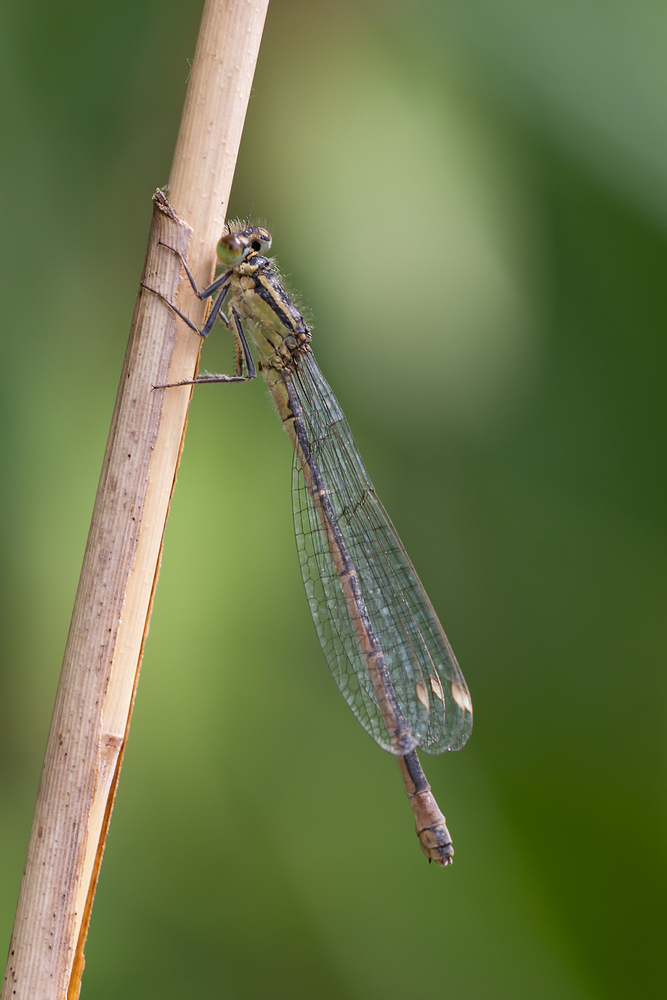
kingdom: Animalia
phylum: Arthropoda
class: Insecta
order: Odonata
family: Coenagrionidae
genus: Ischnura
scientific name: Ischnura elegans
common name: Blue-tailed damselfly
